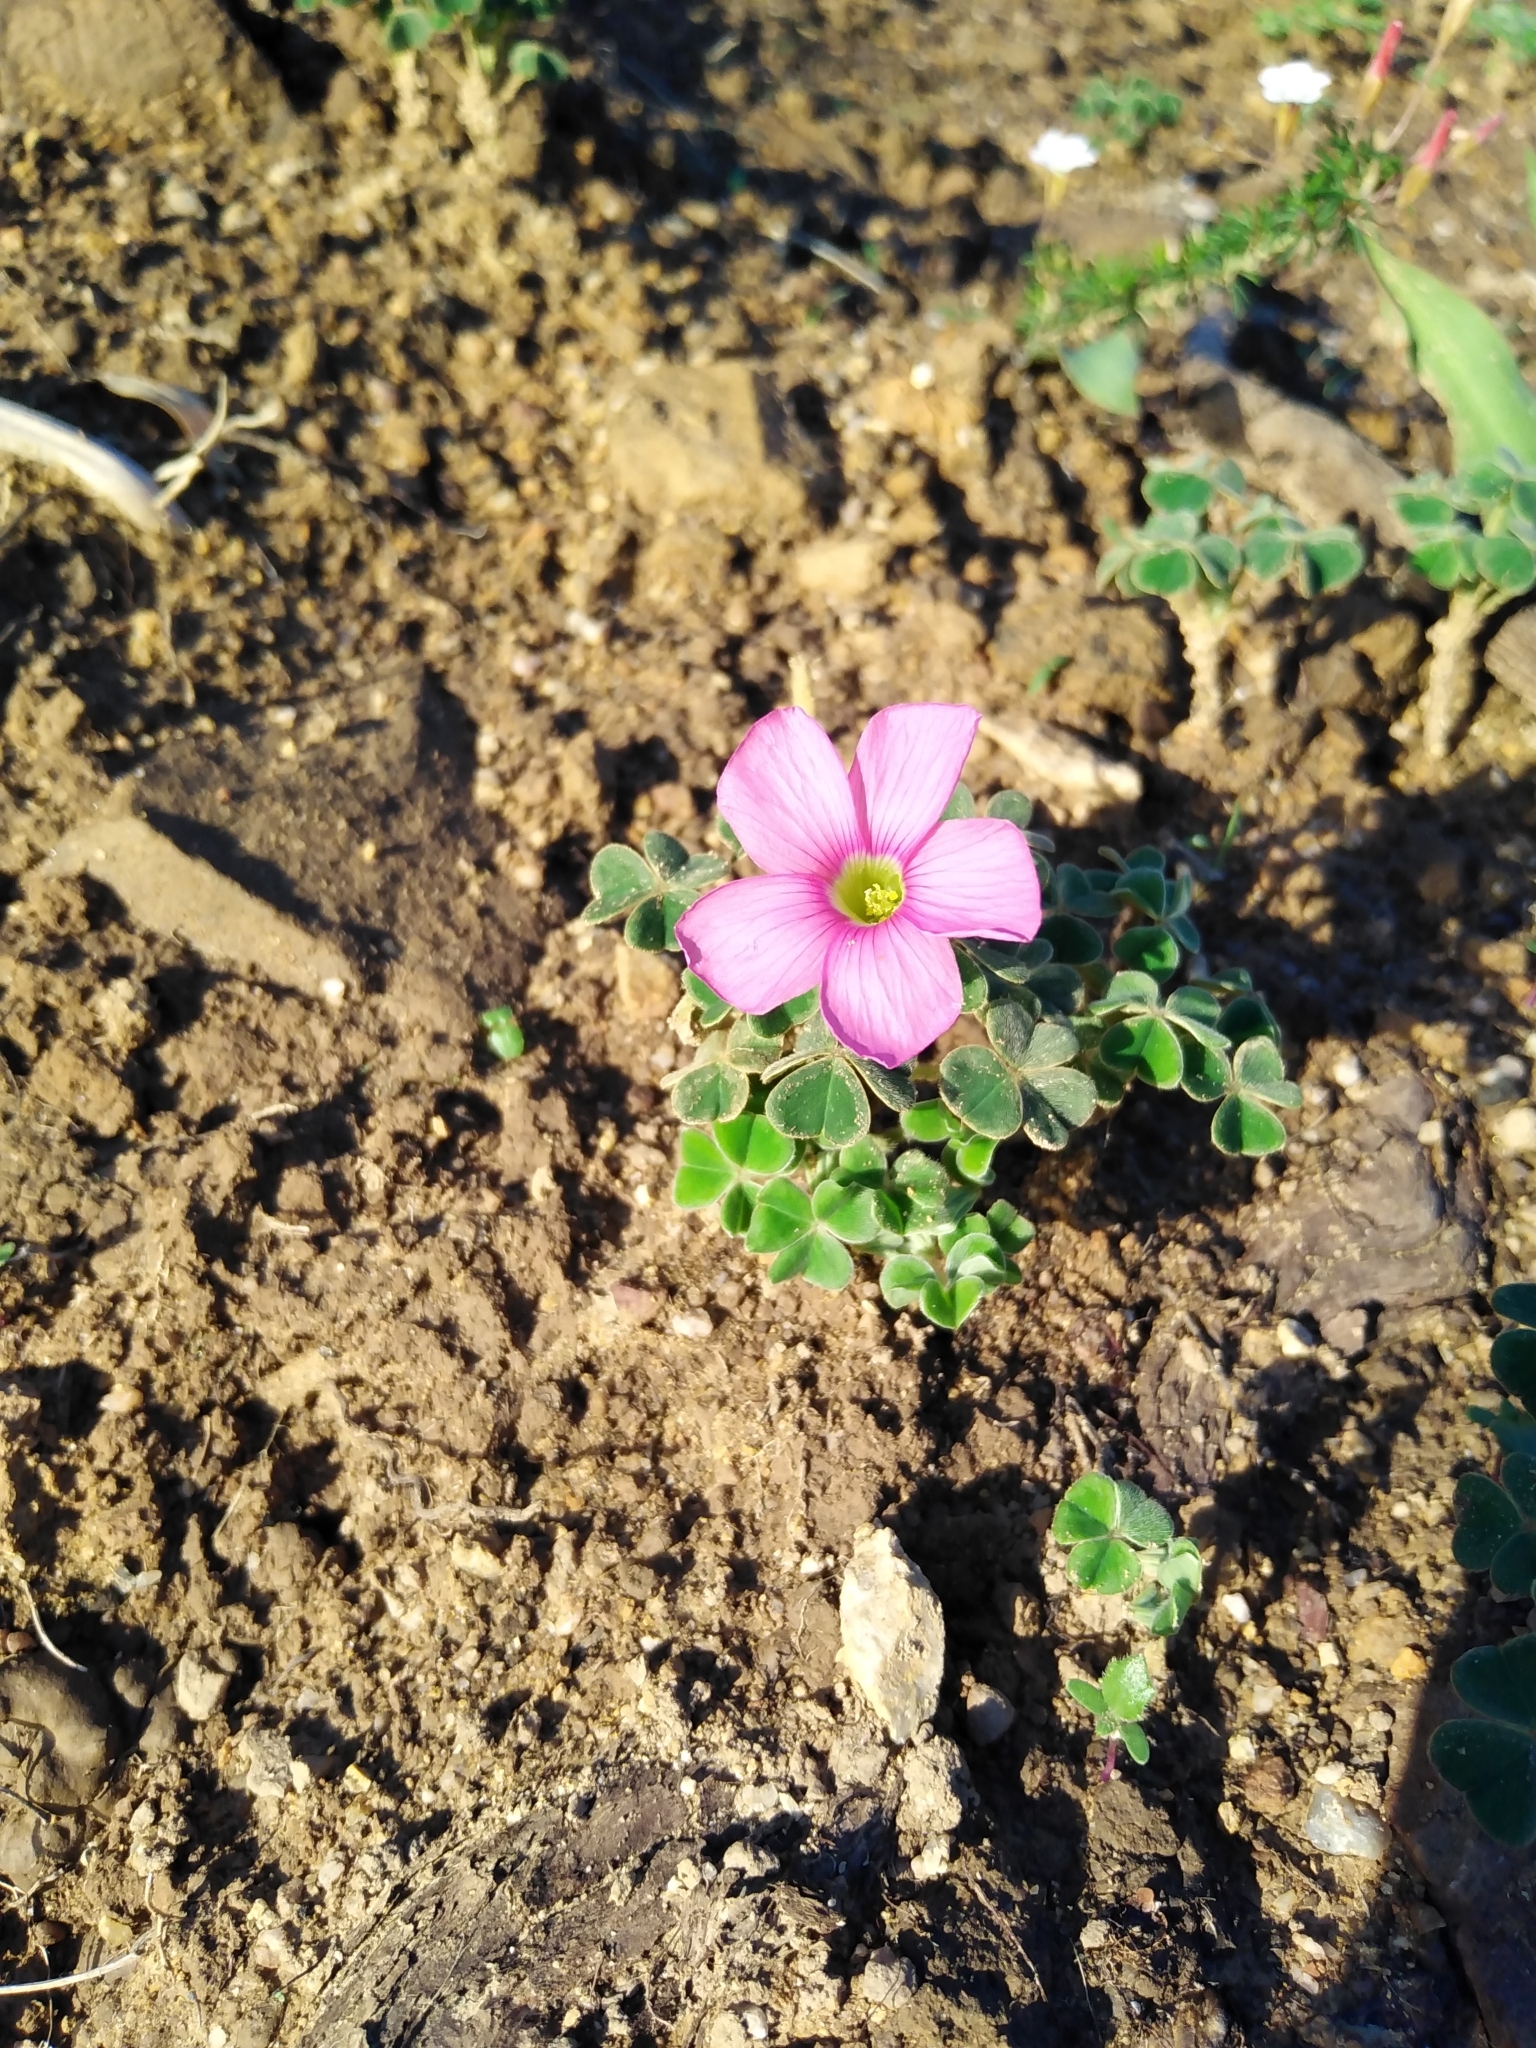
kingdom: Plantae
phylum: Tracheophyta
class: Magnoliopsida
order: Oxalidales
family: Oxalidaceae
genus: Oxalis
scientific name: Oxalis lanata
